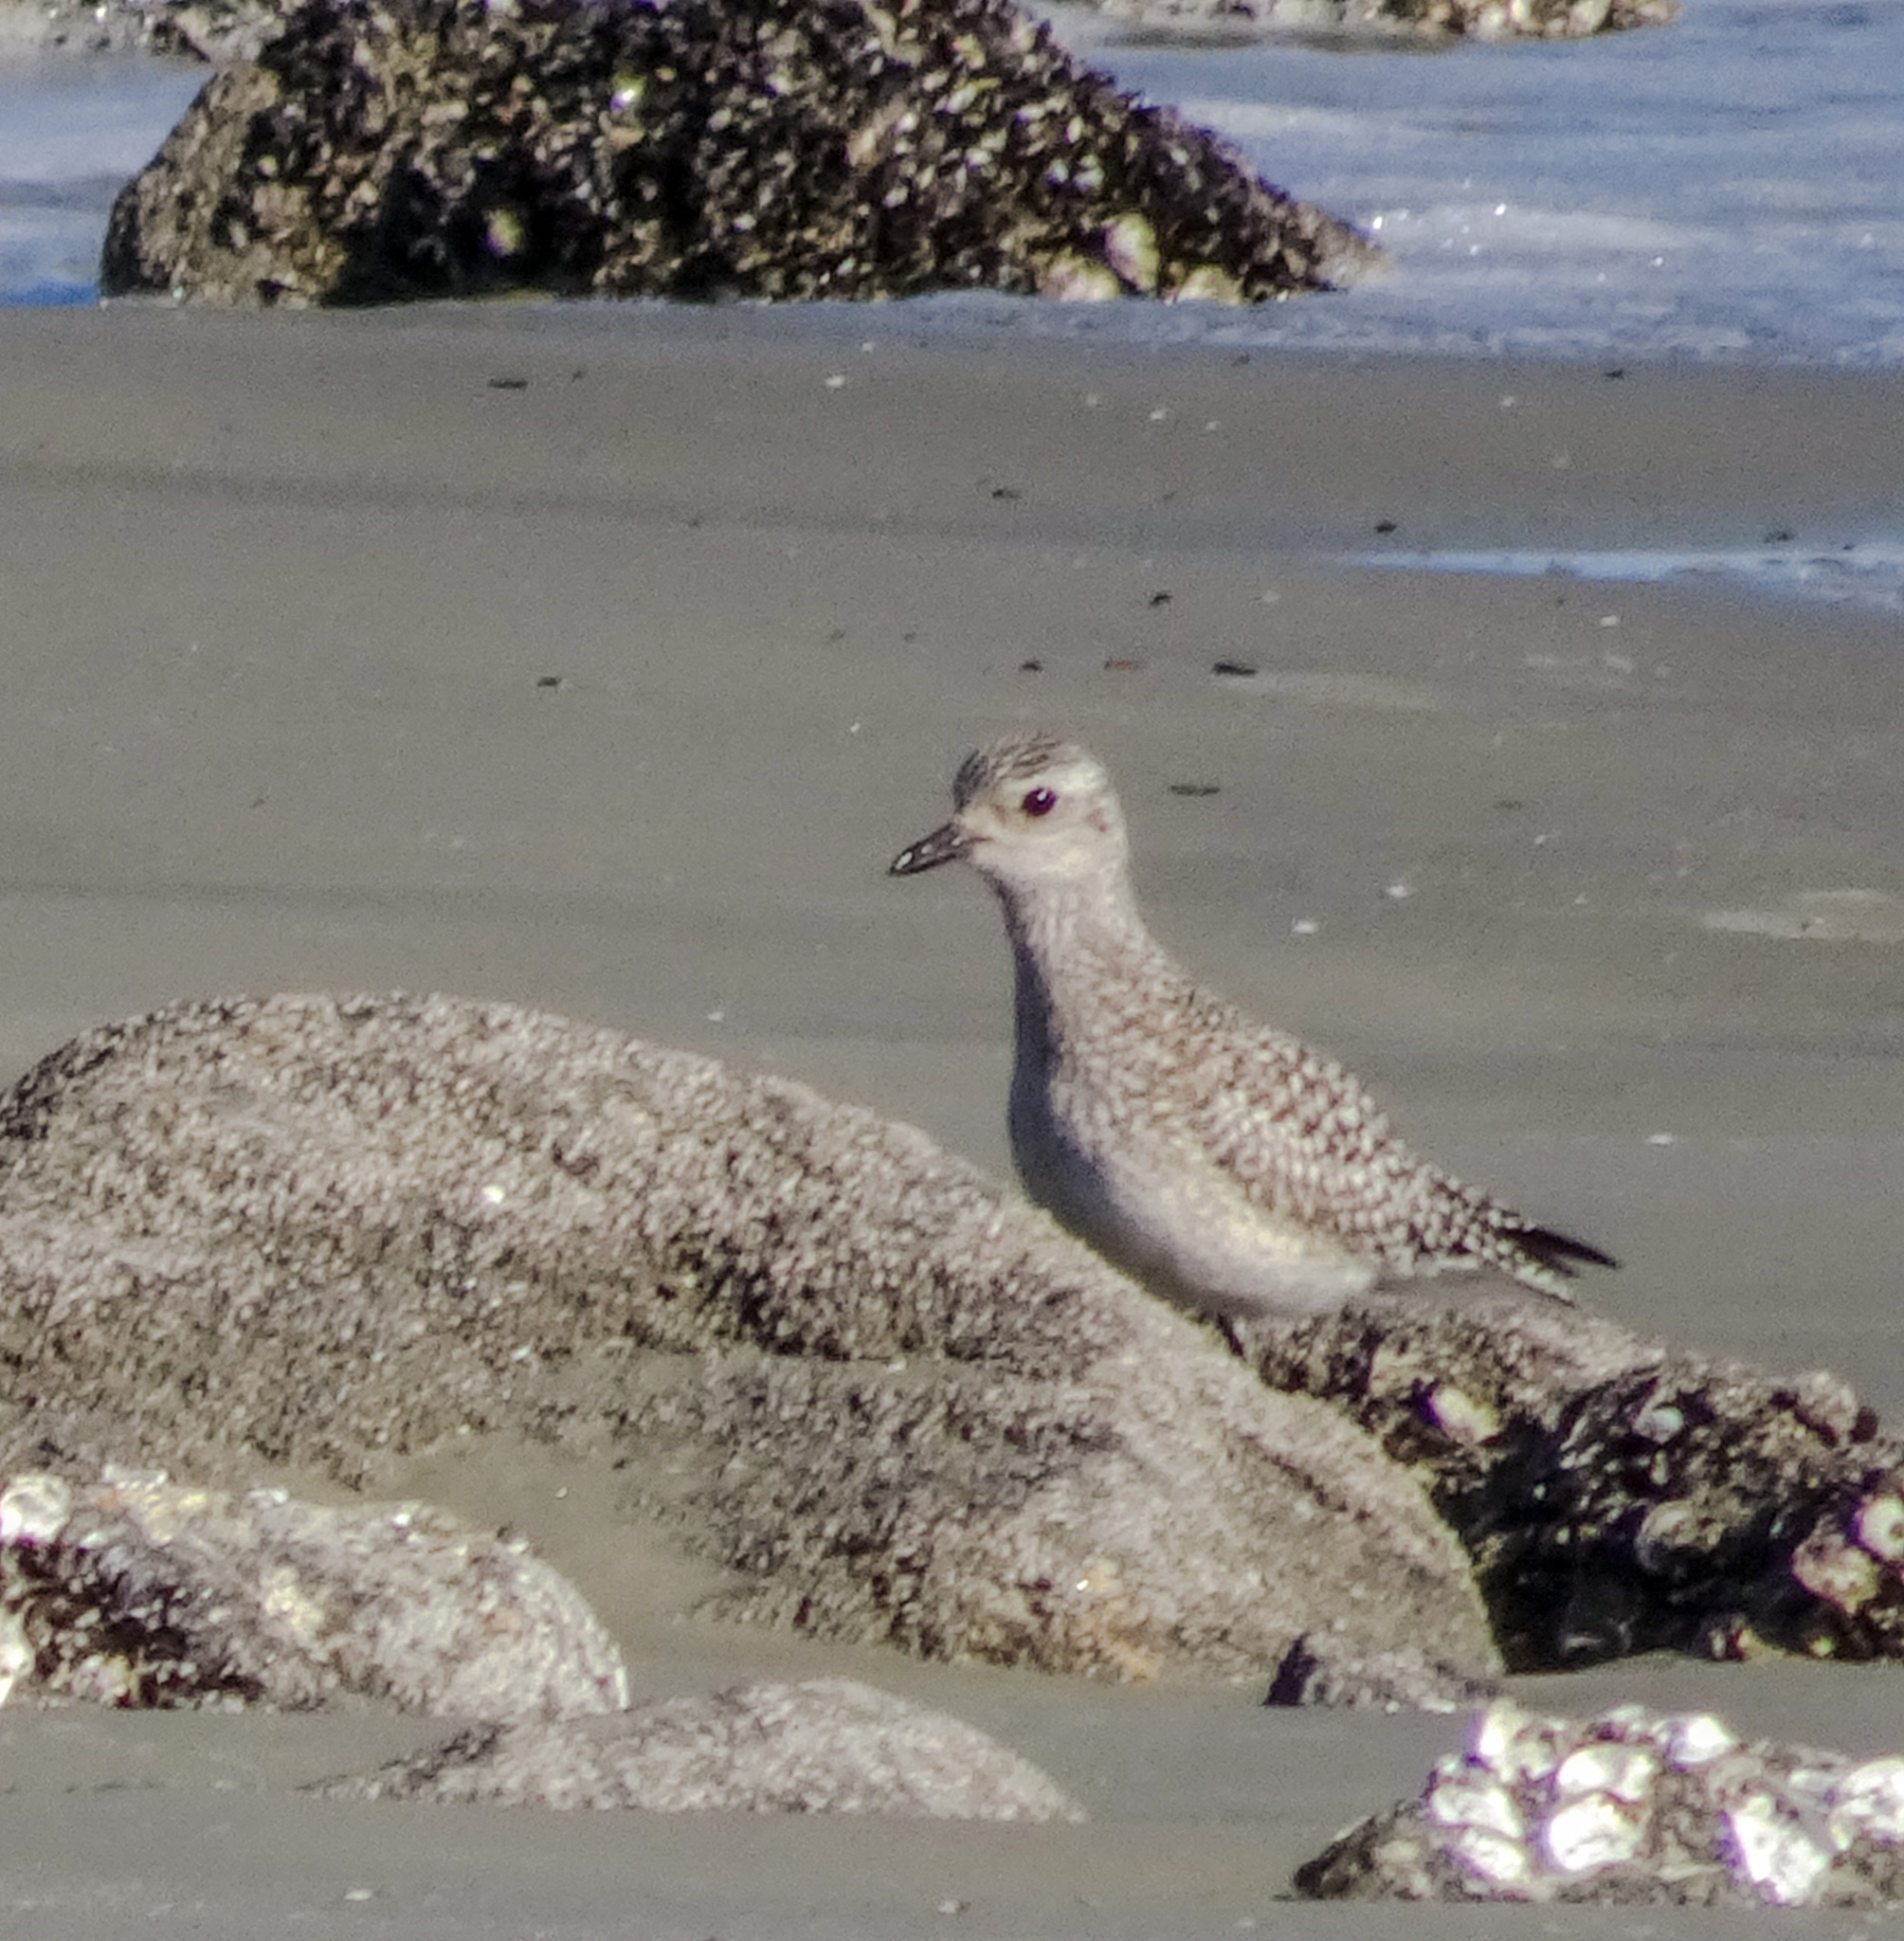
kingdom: Animalia
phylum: Chordata
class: Aves
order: Charadriiformes
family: Charadriidae
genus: Pluvialis
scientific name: Pluvialis squatarola
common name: Grey plover
